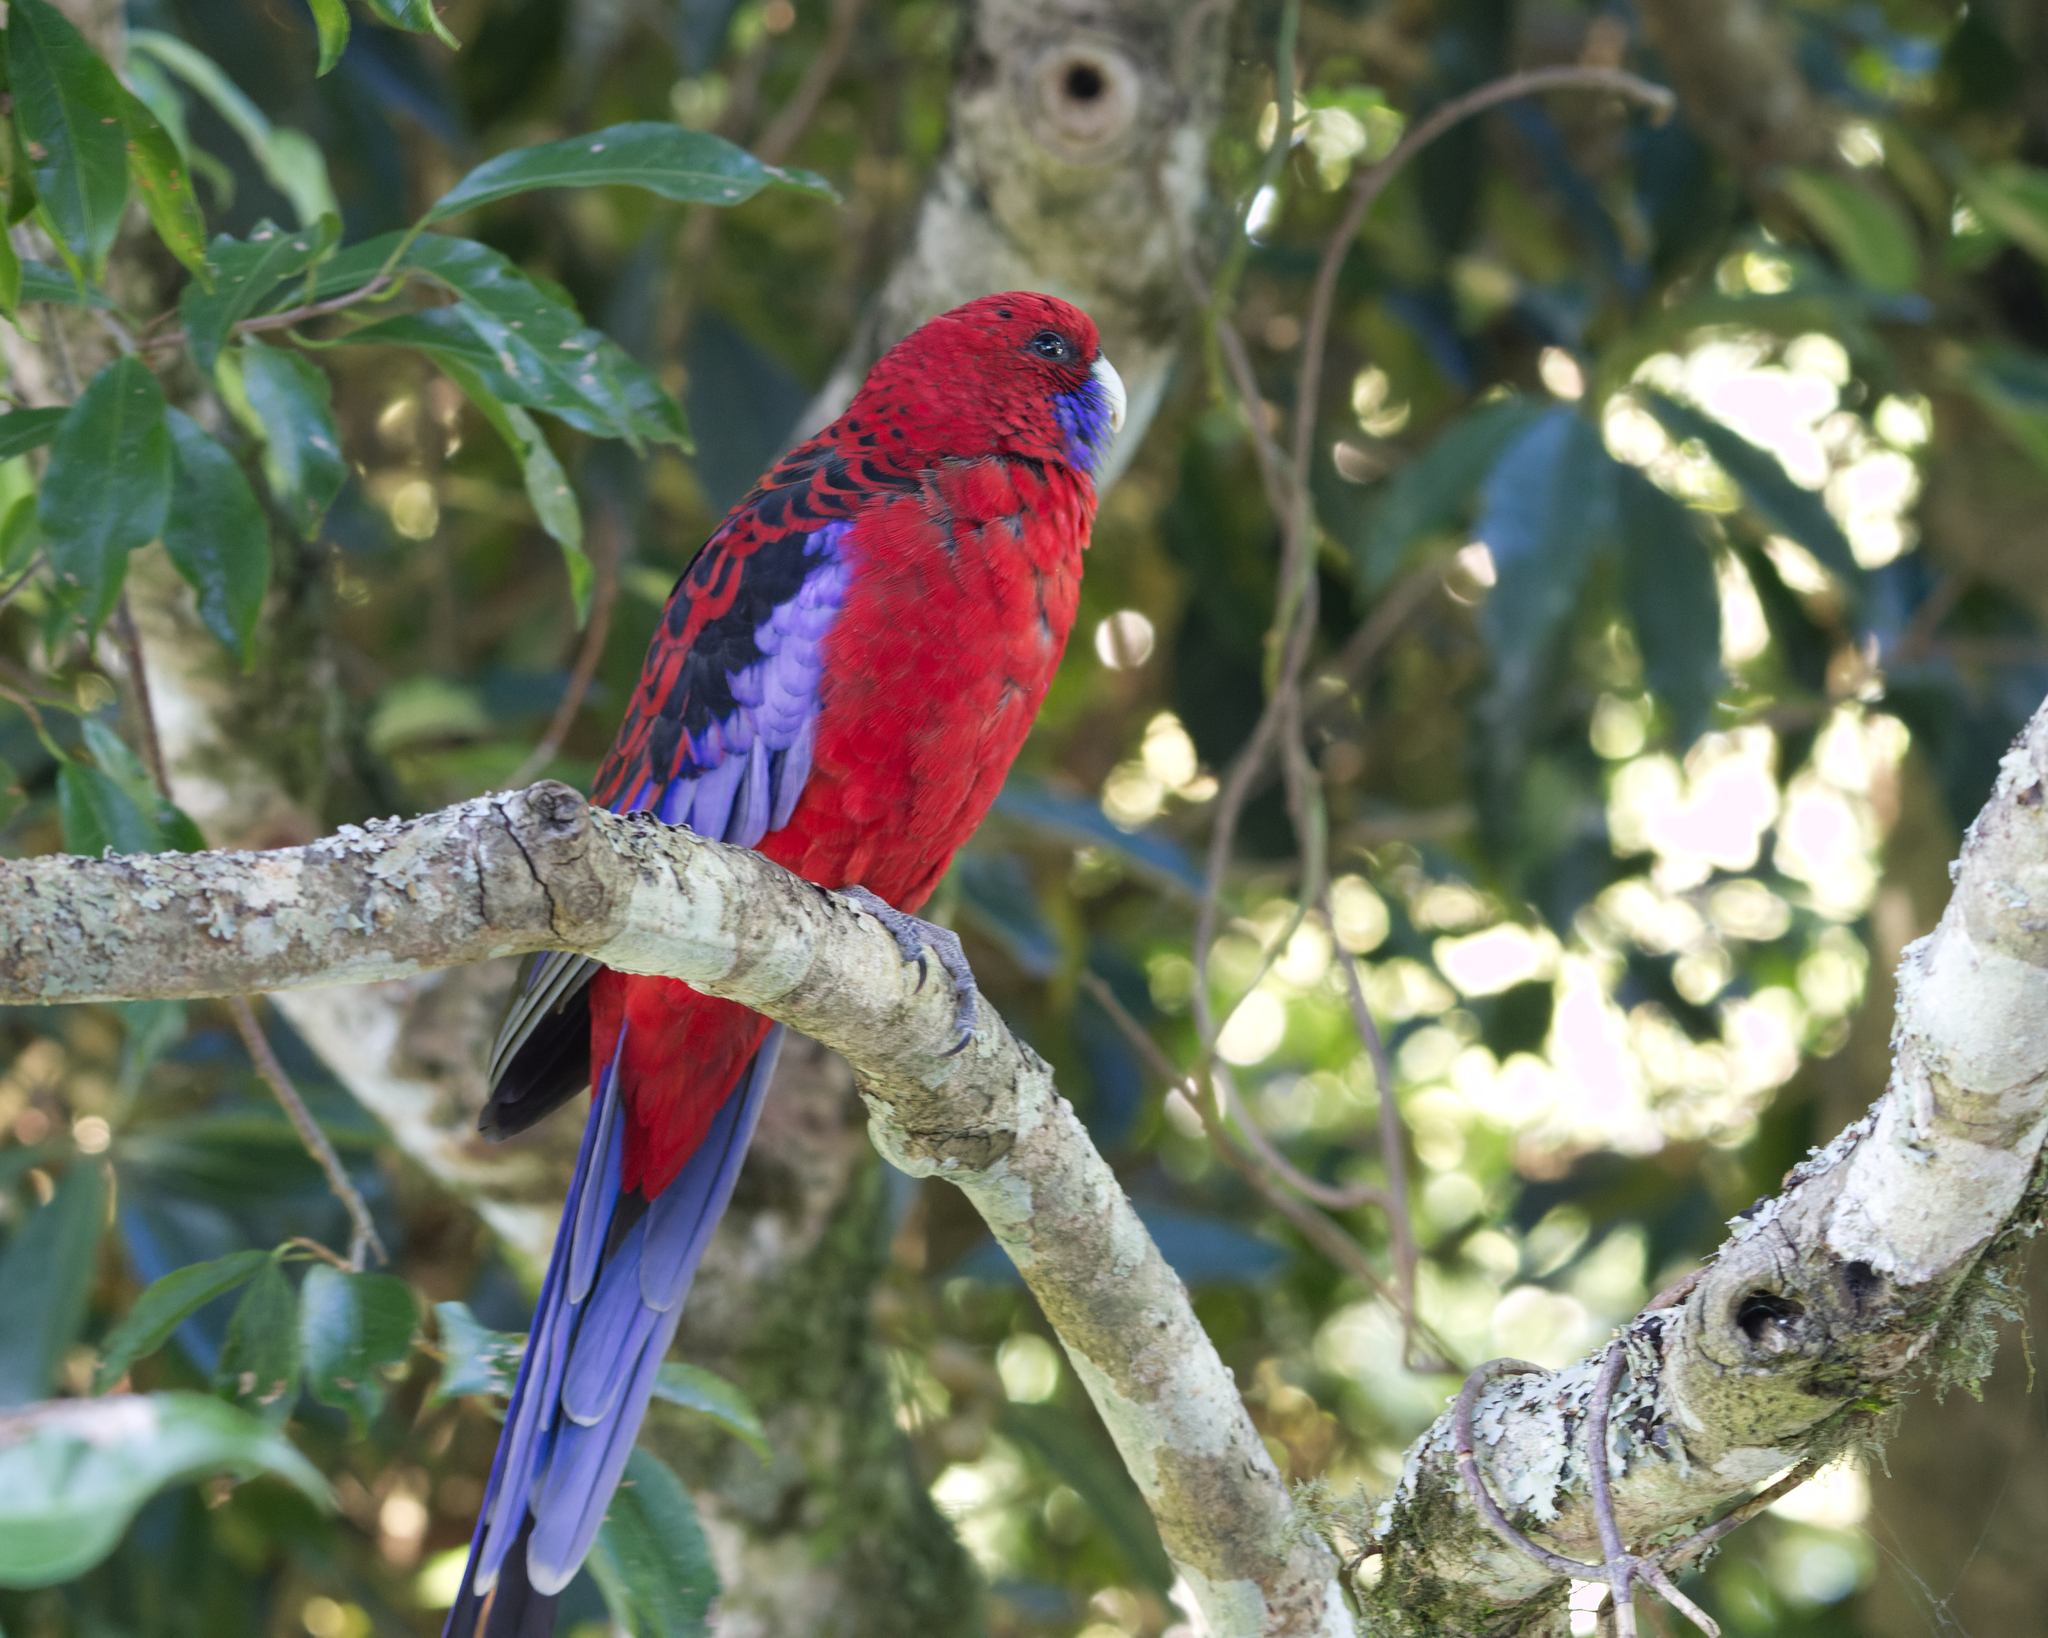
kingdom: Animalia
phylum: Chordata
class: Aves
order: Psittaciformes
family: Psittacidae
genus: Platycercus
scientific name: Platycercus elegans
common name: Crimson rosella
